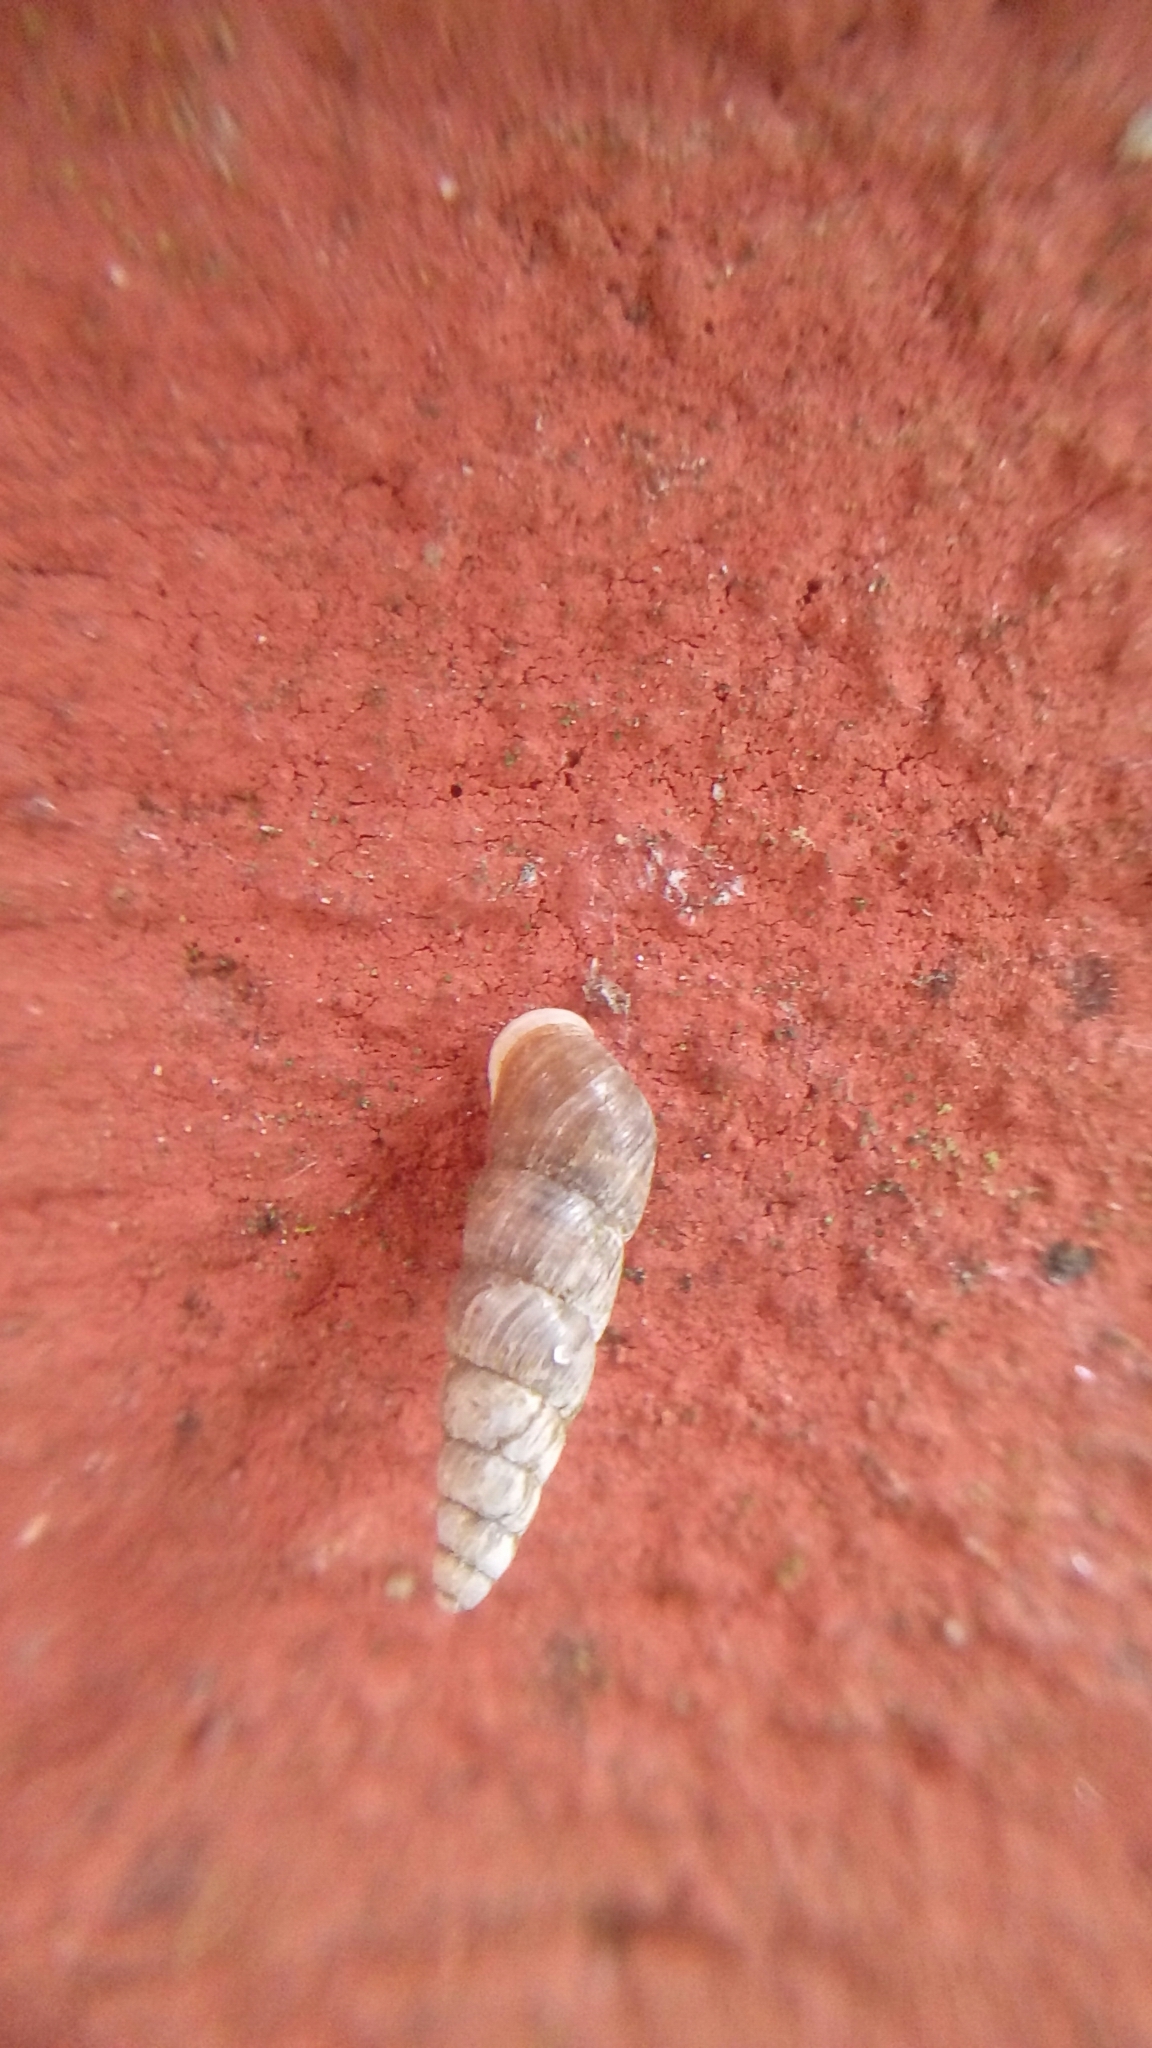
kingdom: Animalia
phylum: Mollusca
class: Gastropoda
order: Stylommatophora
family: Clausiliidae
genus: Balea
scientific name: Balea heydeni
